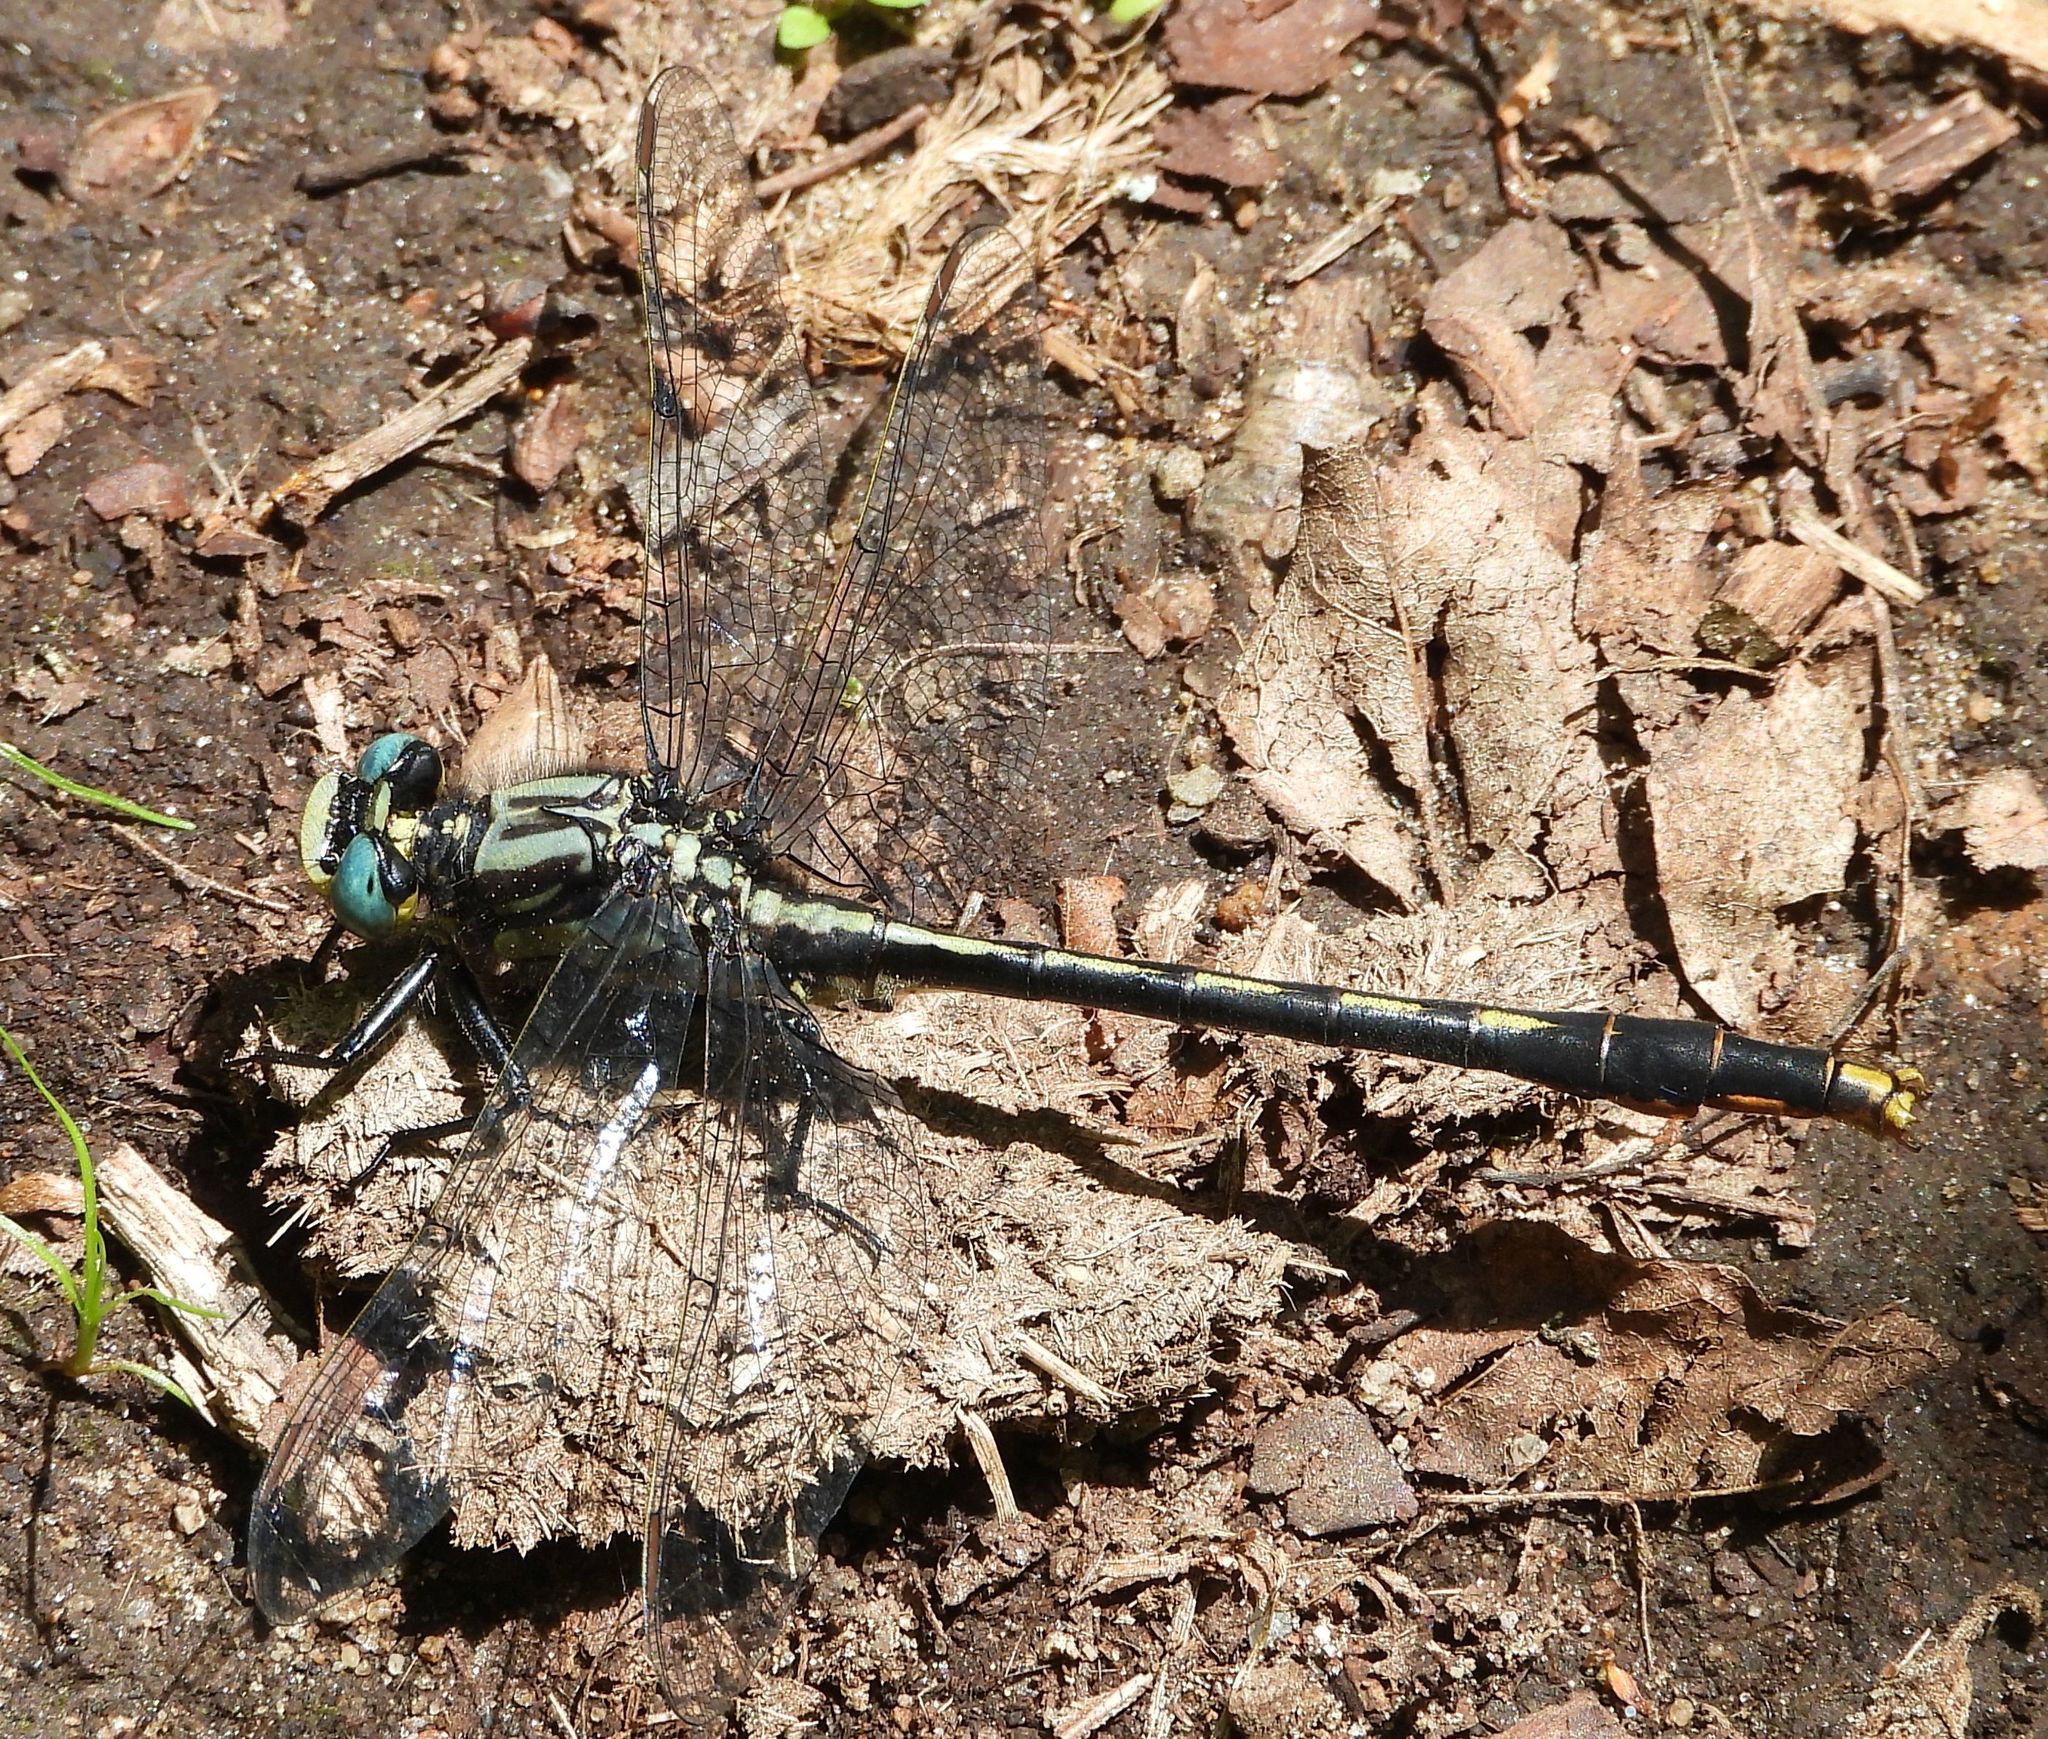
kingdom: Animalia
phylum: Arthropoda
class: Insecta
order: Odonata
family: Gomphidae
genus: Arigomphus
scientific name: Arigomphus furcifer
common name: Lilypad clubtail
